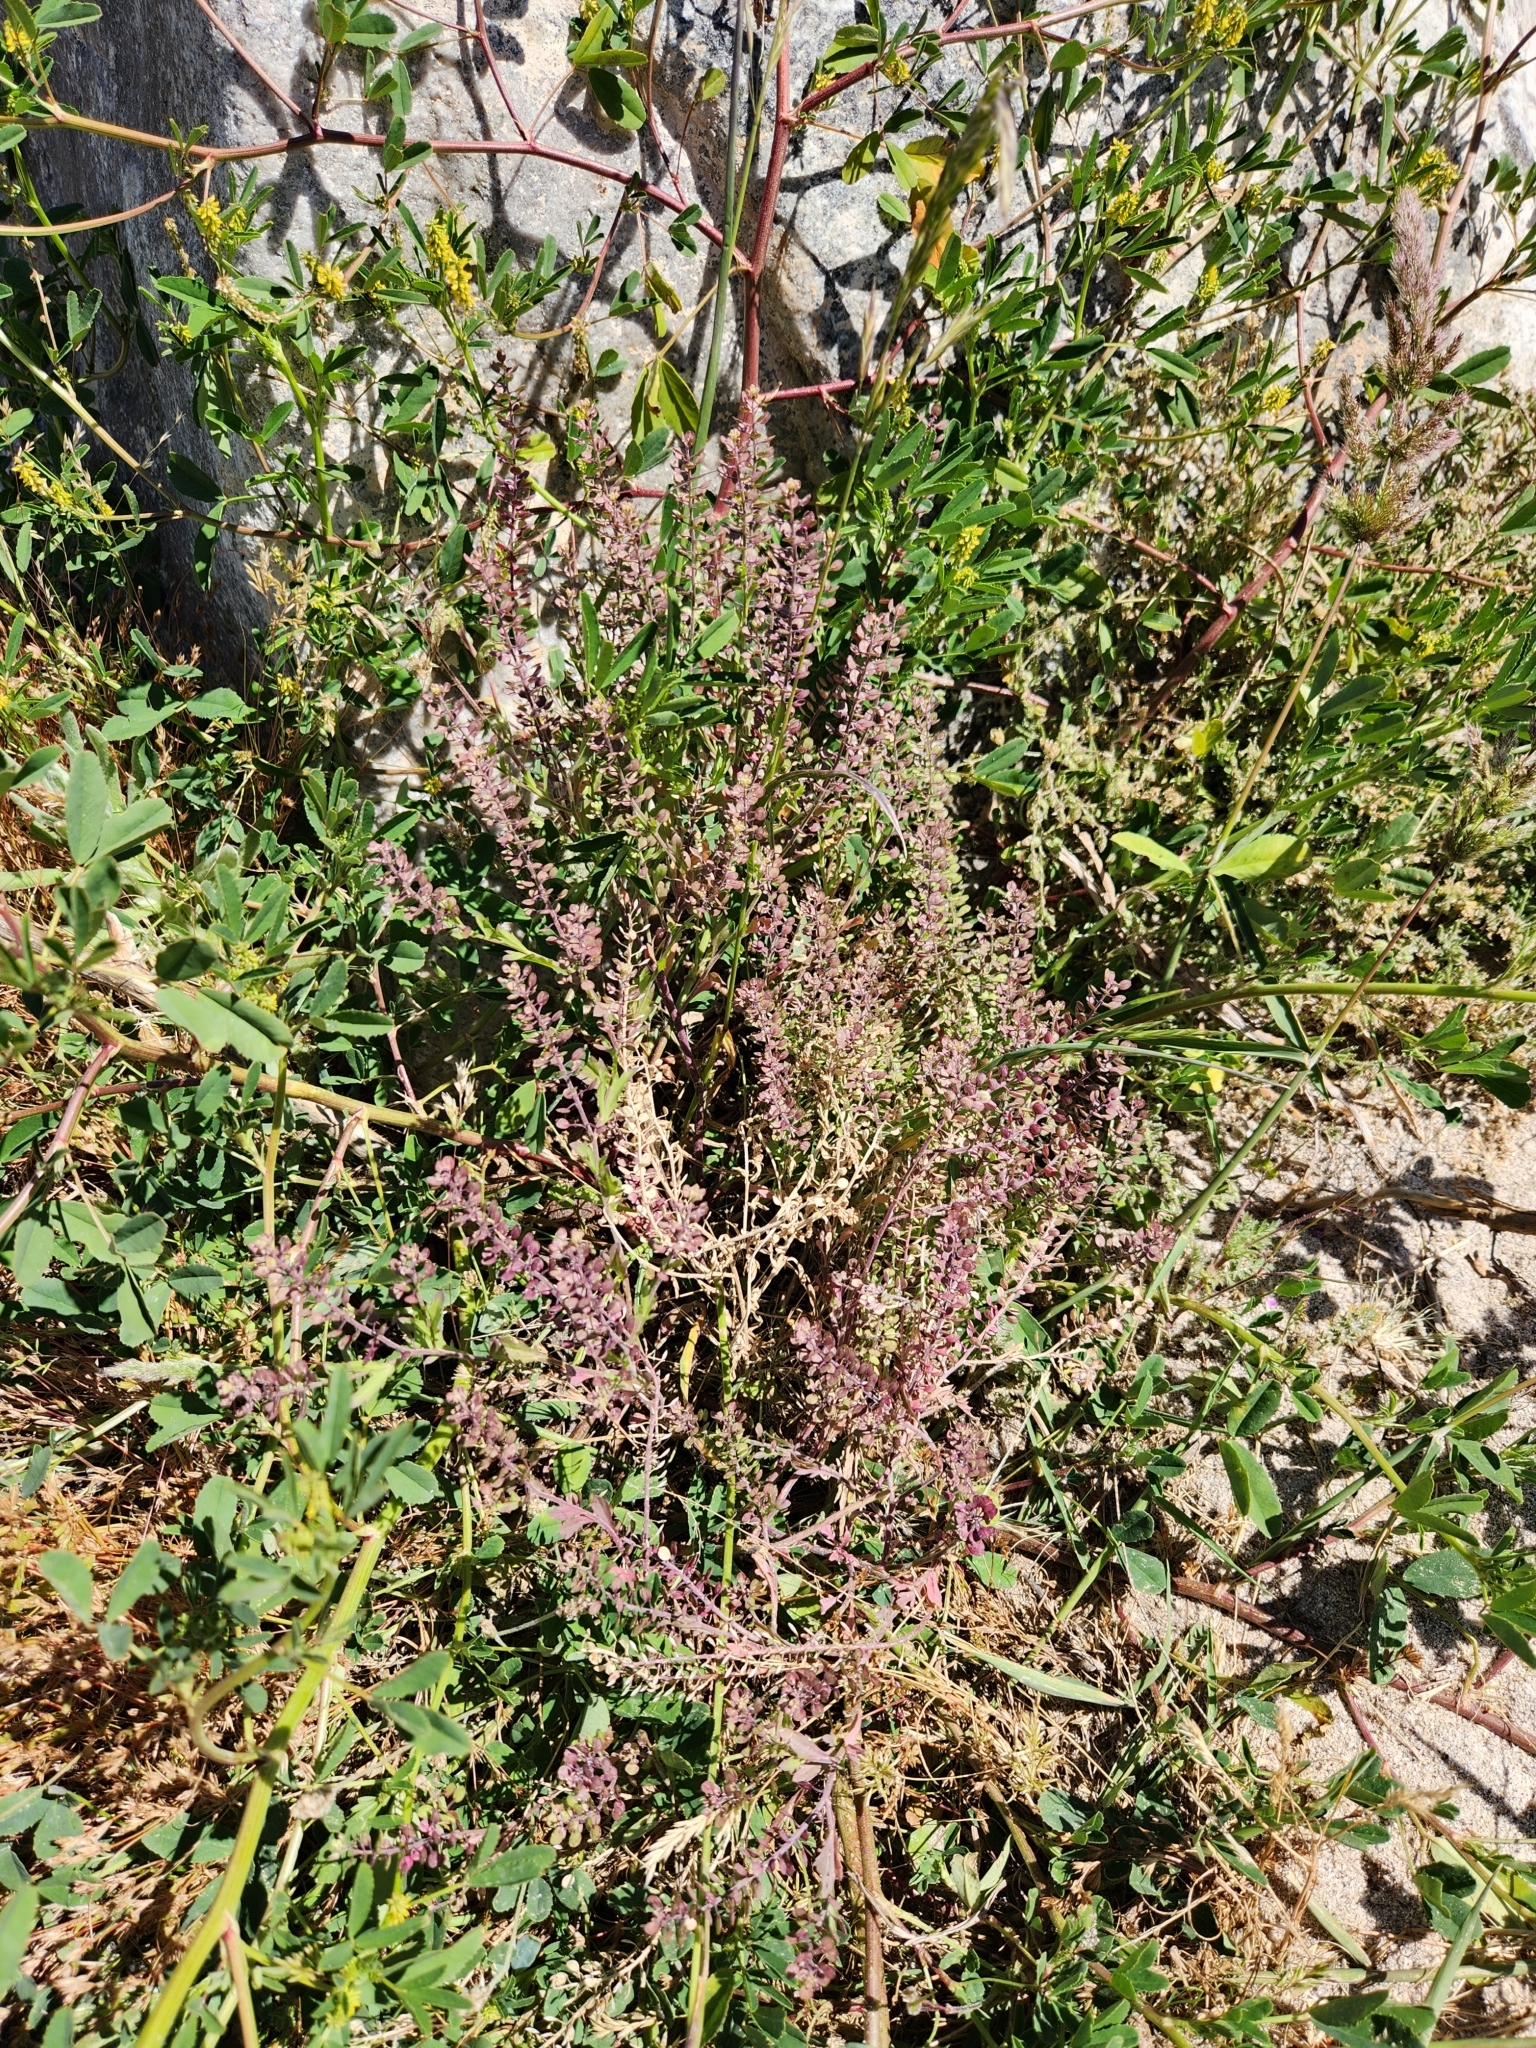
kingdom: Plantae
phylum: Tracheophyta
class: Magnoliopsida
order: Brassicales
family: Brassicaceae
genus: Lepidium
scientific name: Lepidium lasiocarpum
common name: Hairy-pod pepperwort
